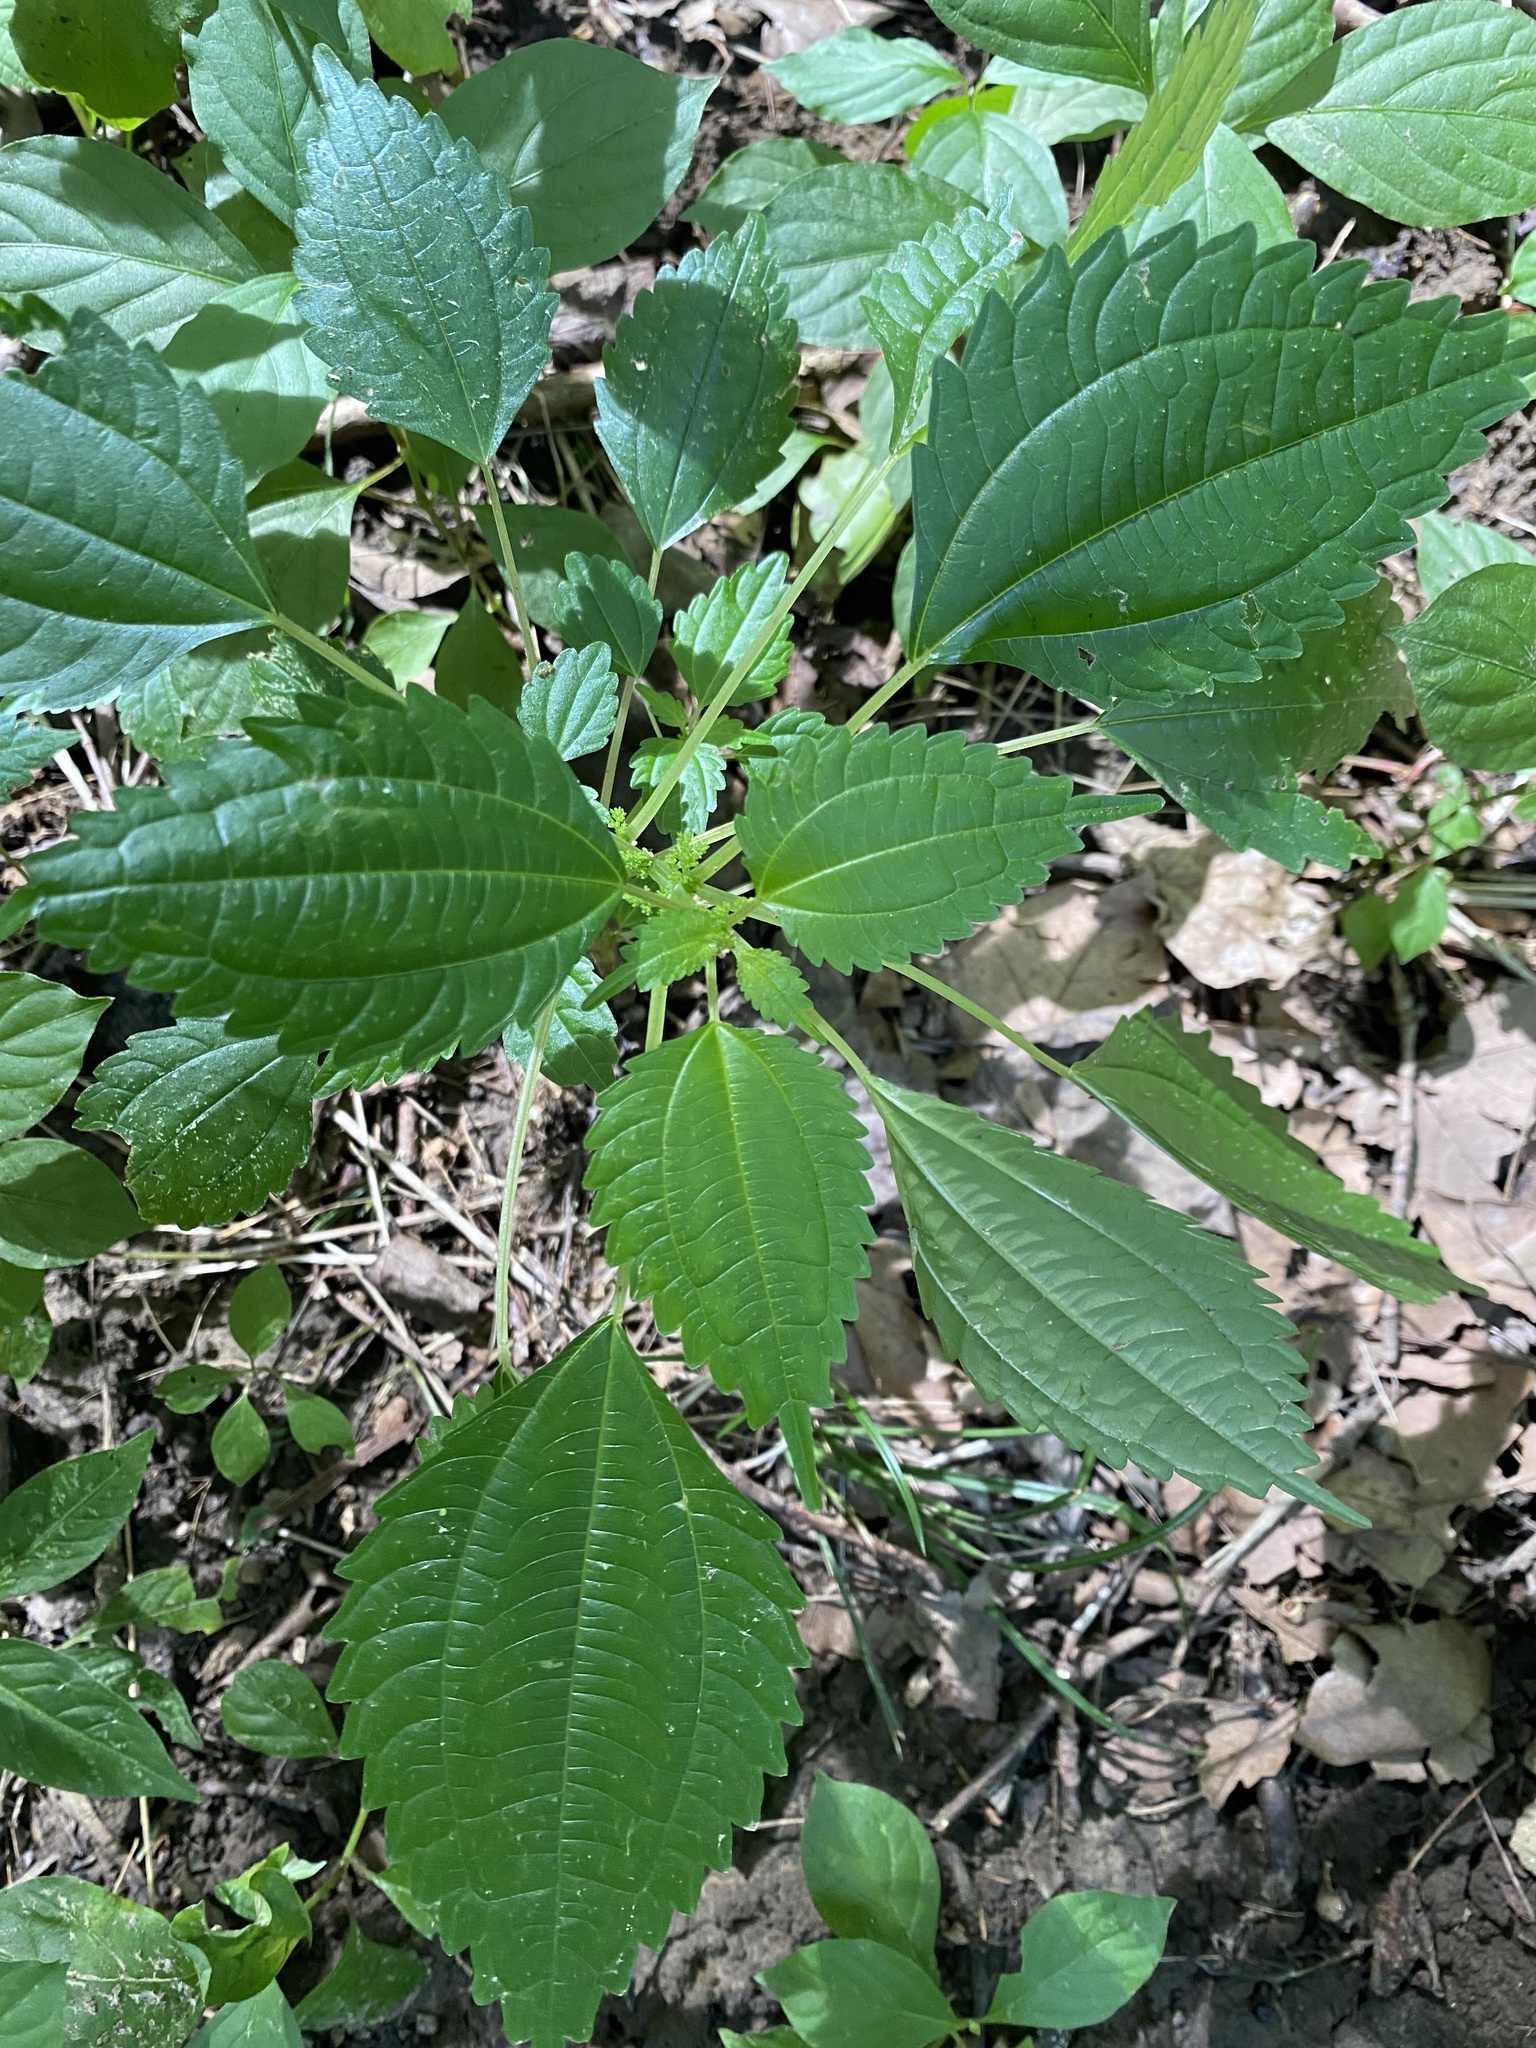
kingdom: Plantae
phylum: Tracheophyta
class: Magnoliopsida
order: Rosales
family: Urticaceae
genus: Pilea
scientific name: Pilea pumila
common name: Clearweed
